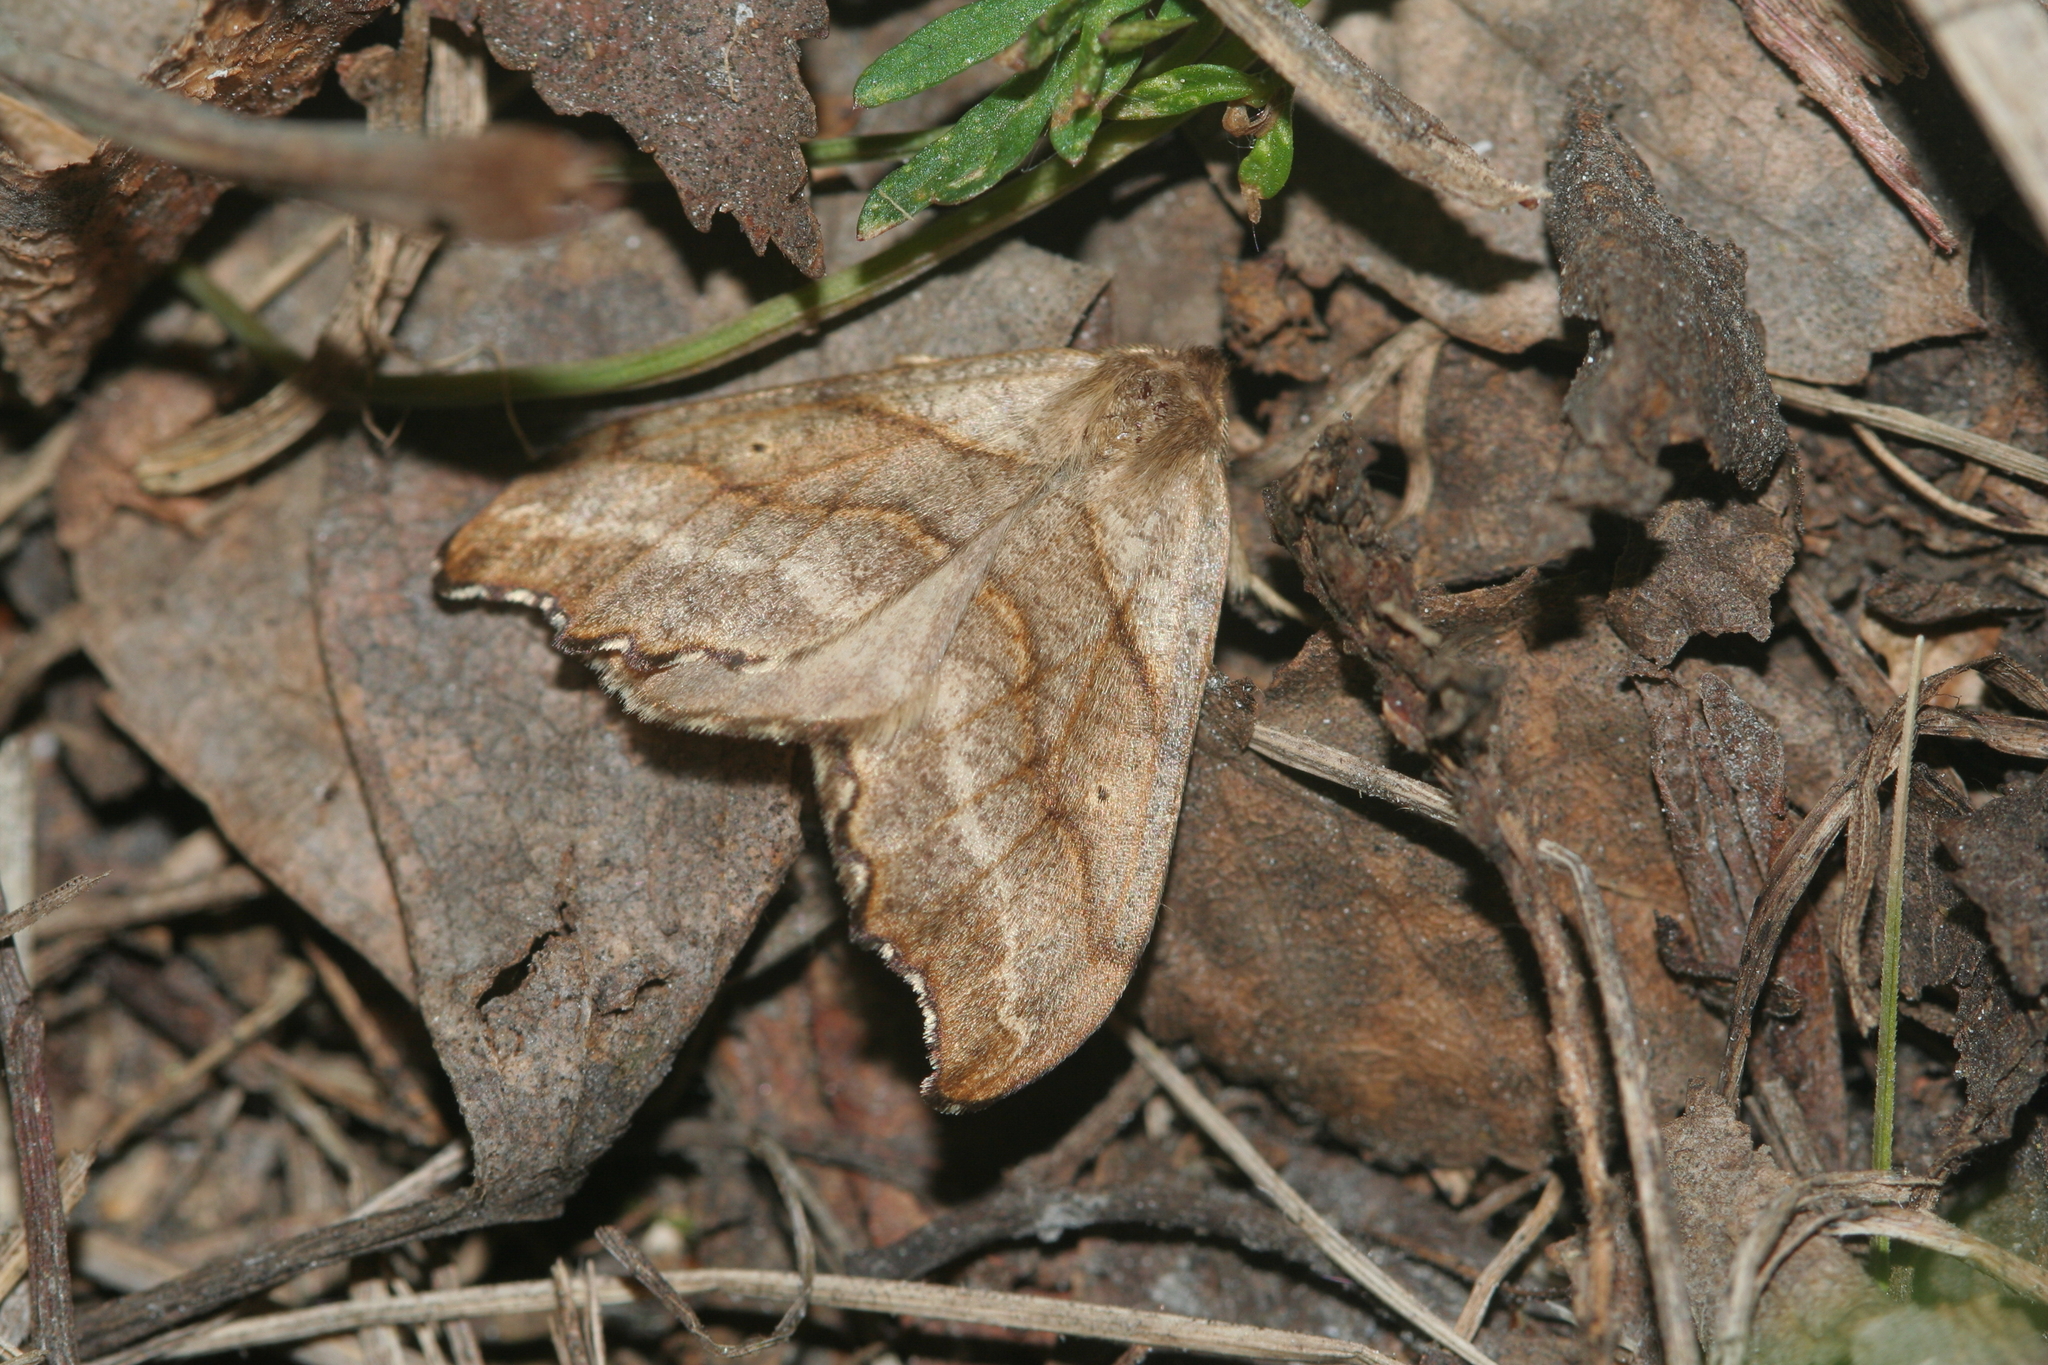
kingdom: Animalia
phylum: Arthropoda
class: Insecta
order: Lepidoptera
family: Drepanidae
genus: Falcaria
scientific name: Falcaria lacertinaria
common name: Scalloped hook-tip
